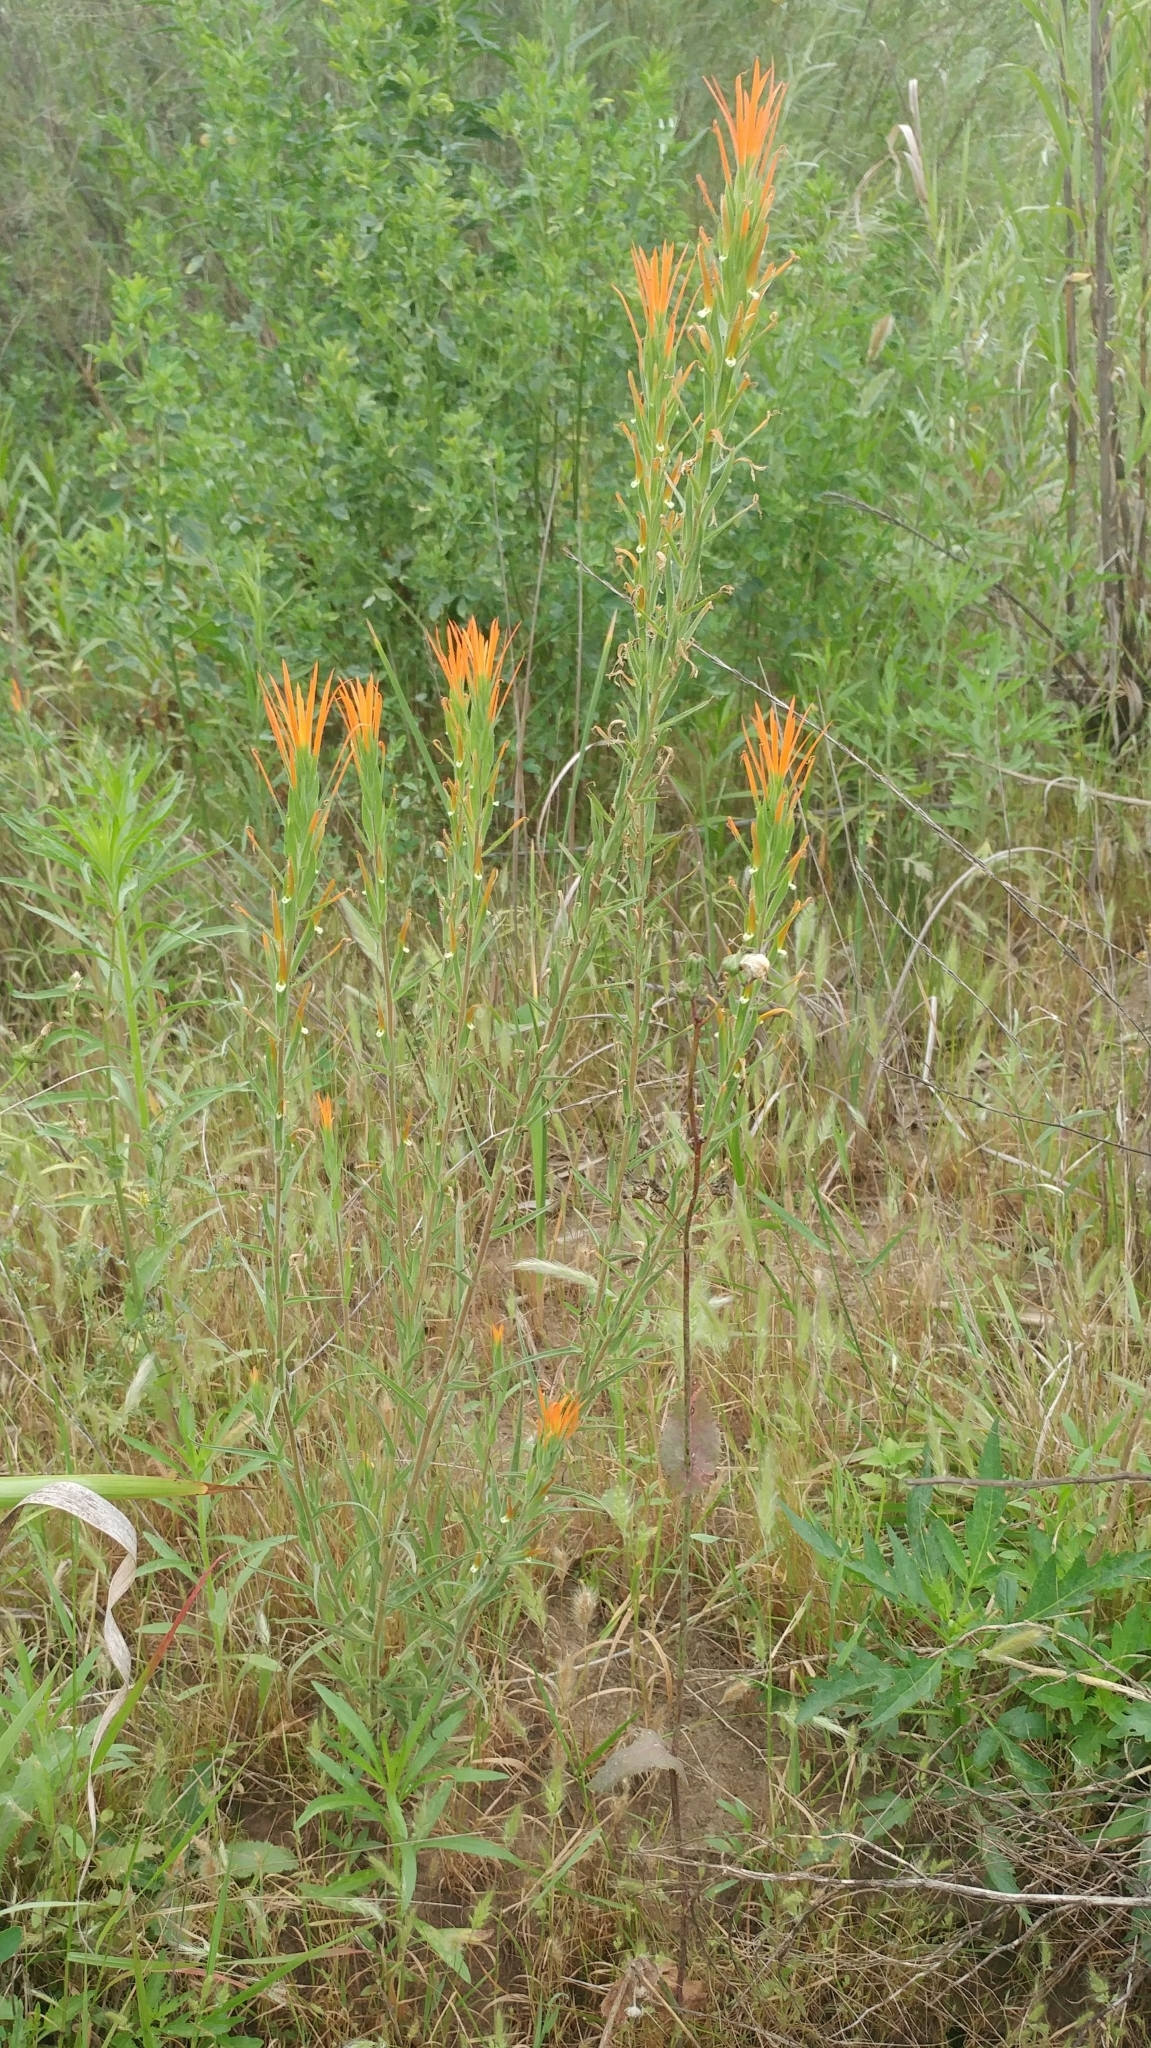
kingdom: Plantae
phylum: Tracheophyta
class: Magnoliopsida
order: Lamiales
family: Orobanchaceae
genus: Castilleja
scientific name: Castilleja minor
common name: Seep paintbrush
